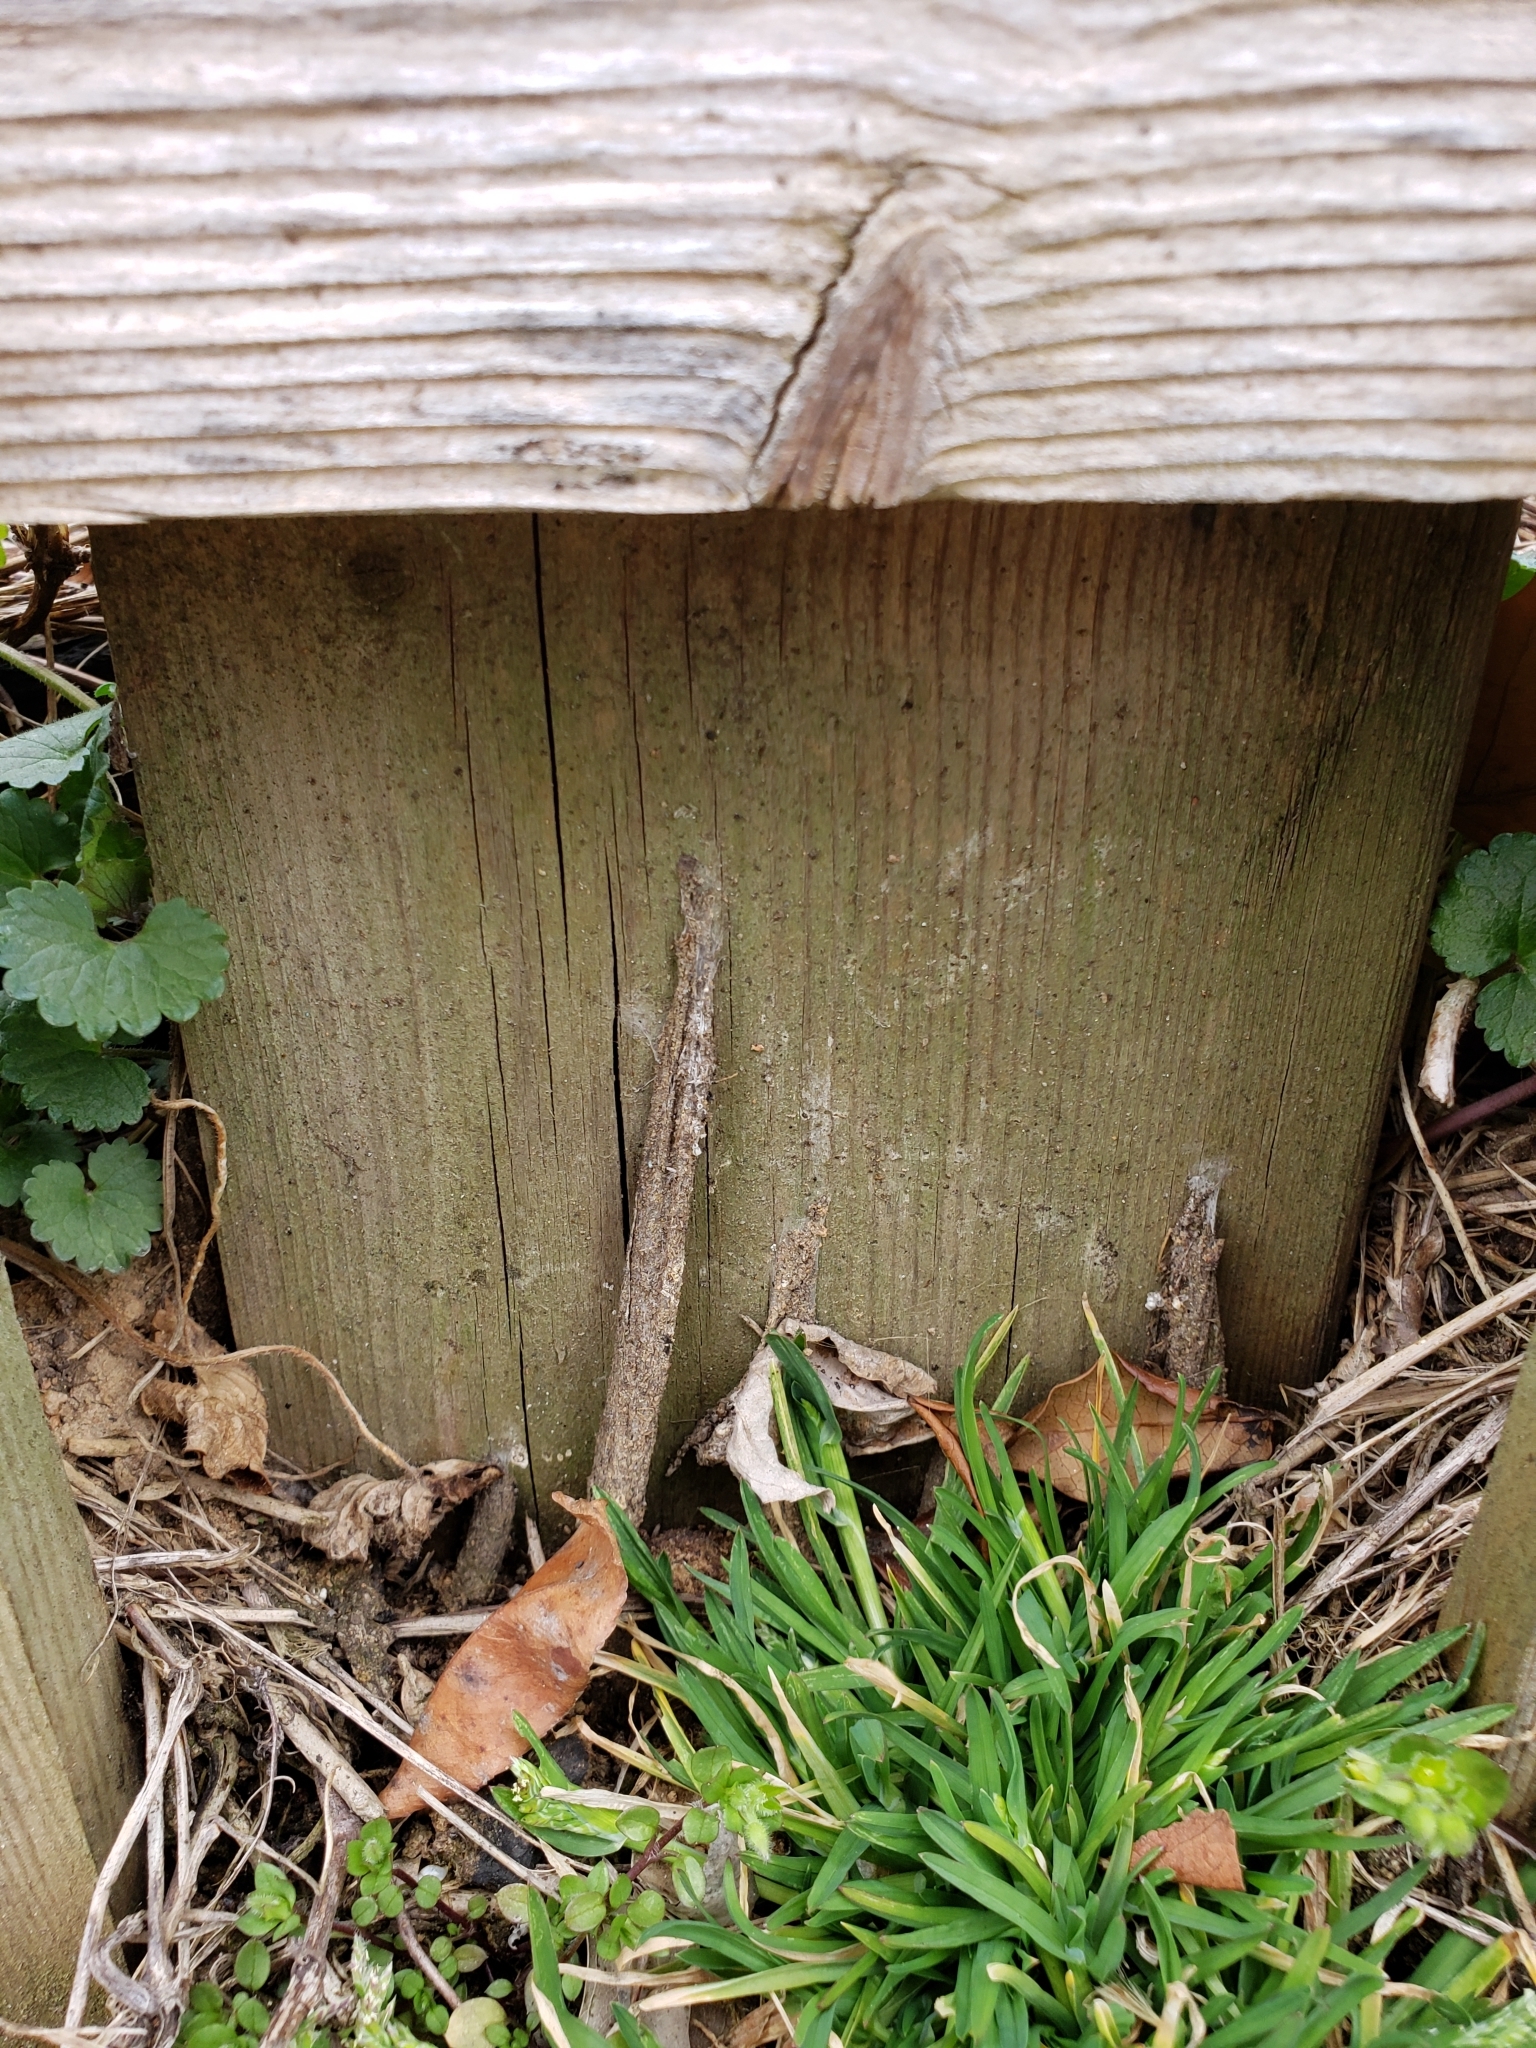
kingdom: Animalia
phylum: Arthropoda
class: Arachnida
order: Araneae
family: Atypidae
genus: Atypus
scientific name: Atypus karschi
